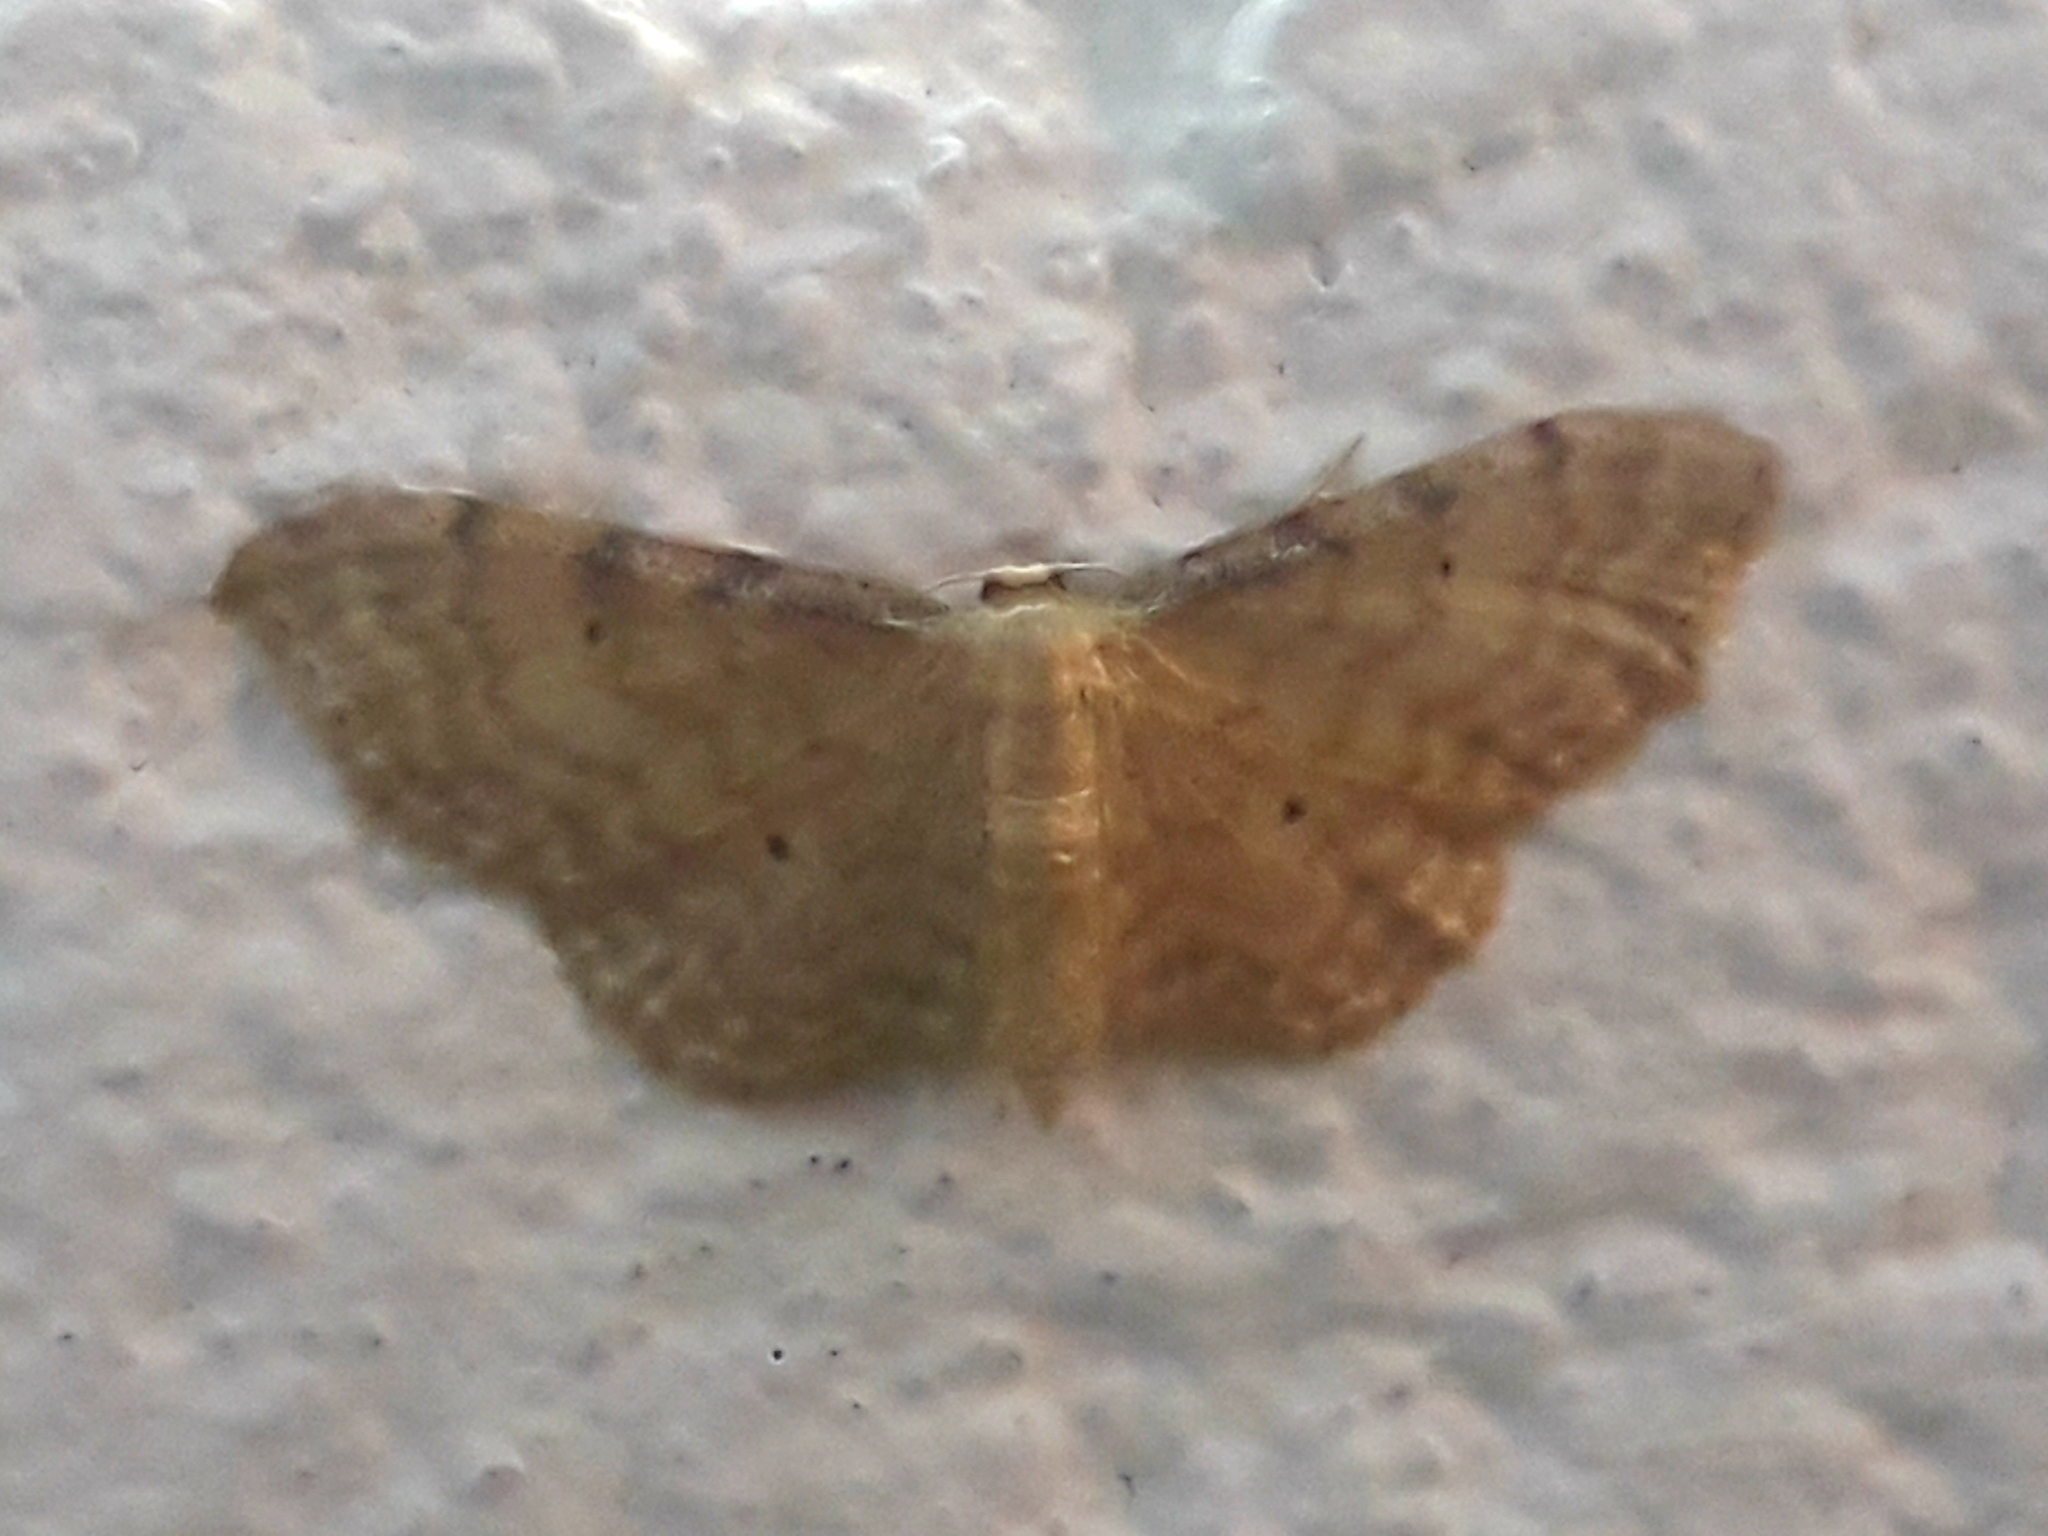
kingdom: Animalia
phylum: Arthropoda
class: Insecta
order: Lepidoptera
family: Geometridae
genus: Idaea
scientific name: Idaea fuscovenosa
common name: Dwarf cream wave
